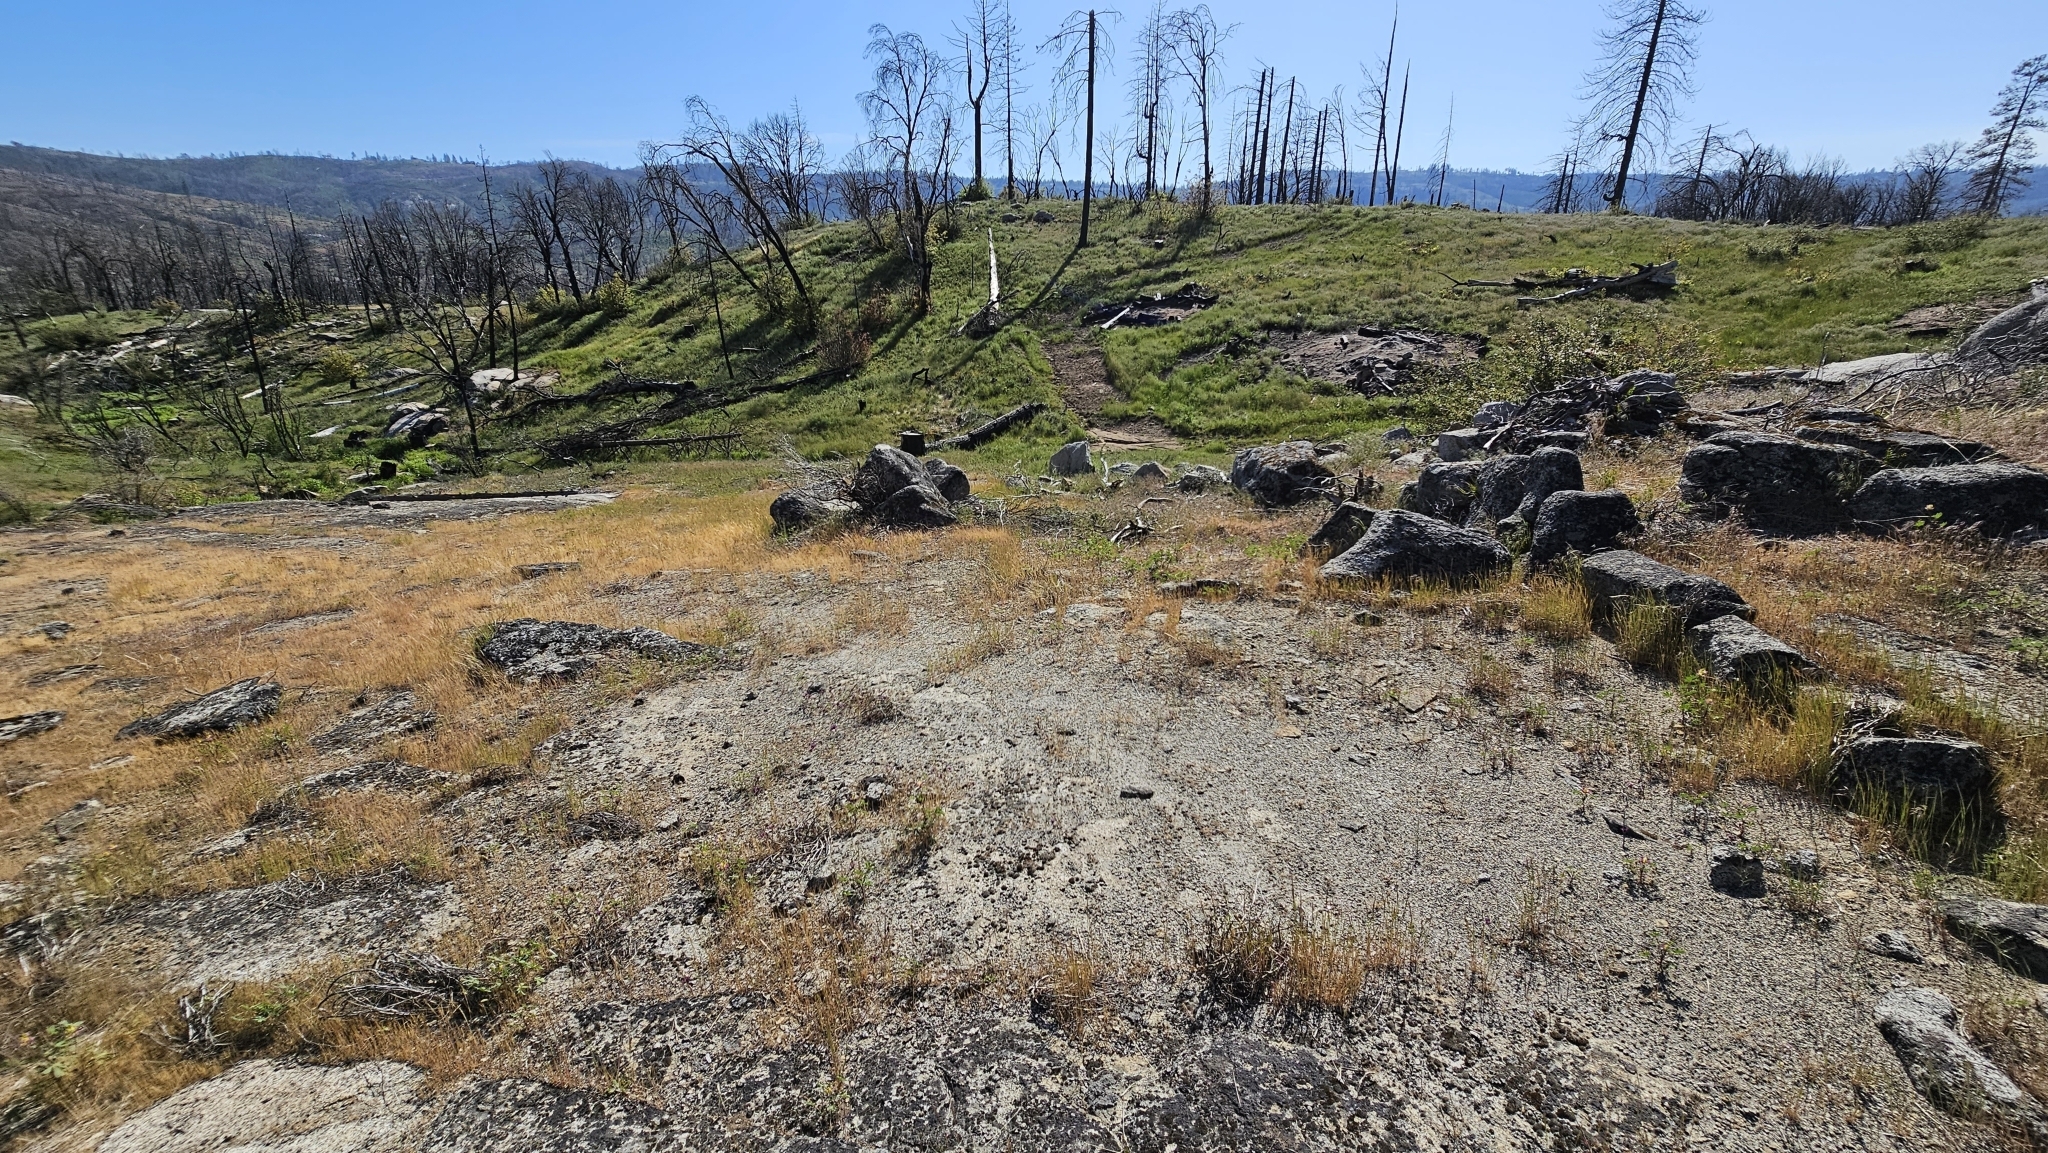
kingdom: Plantae
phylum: Tracheophyta
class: Liliopsida
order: Asparagales
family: Amaryllidaceae
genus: Allium
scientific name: Allium abramsii
